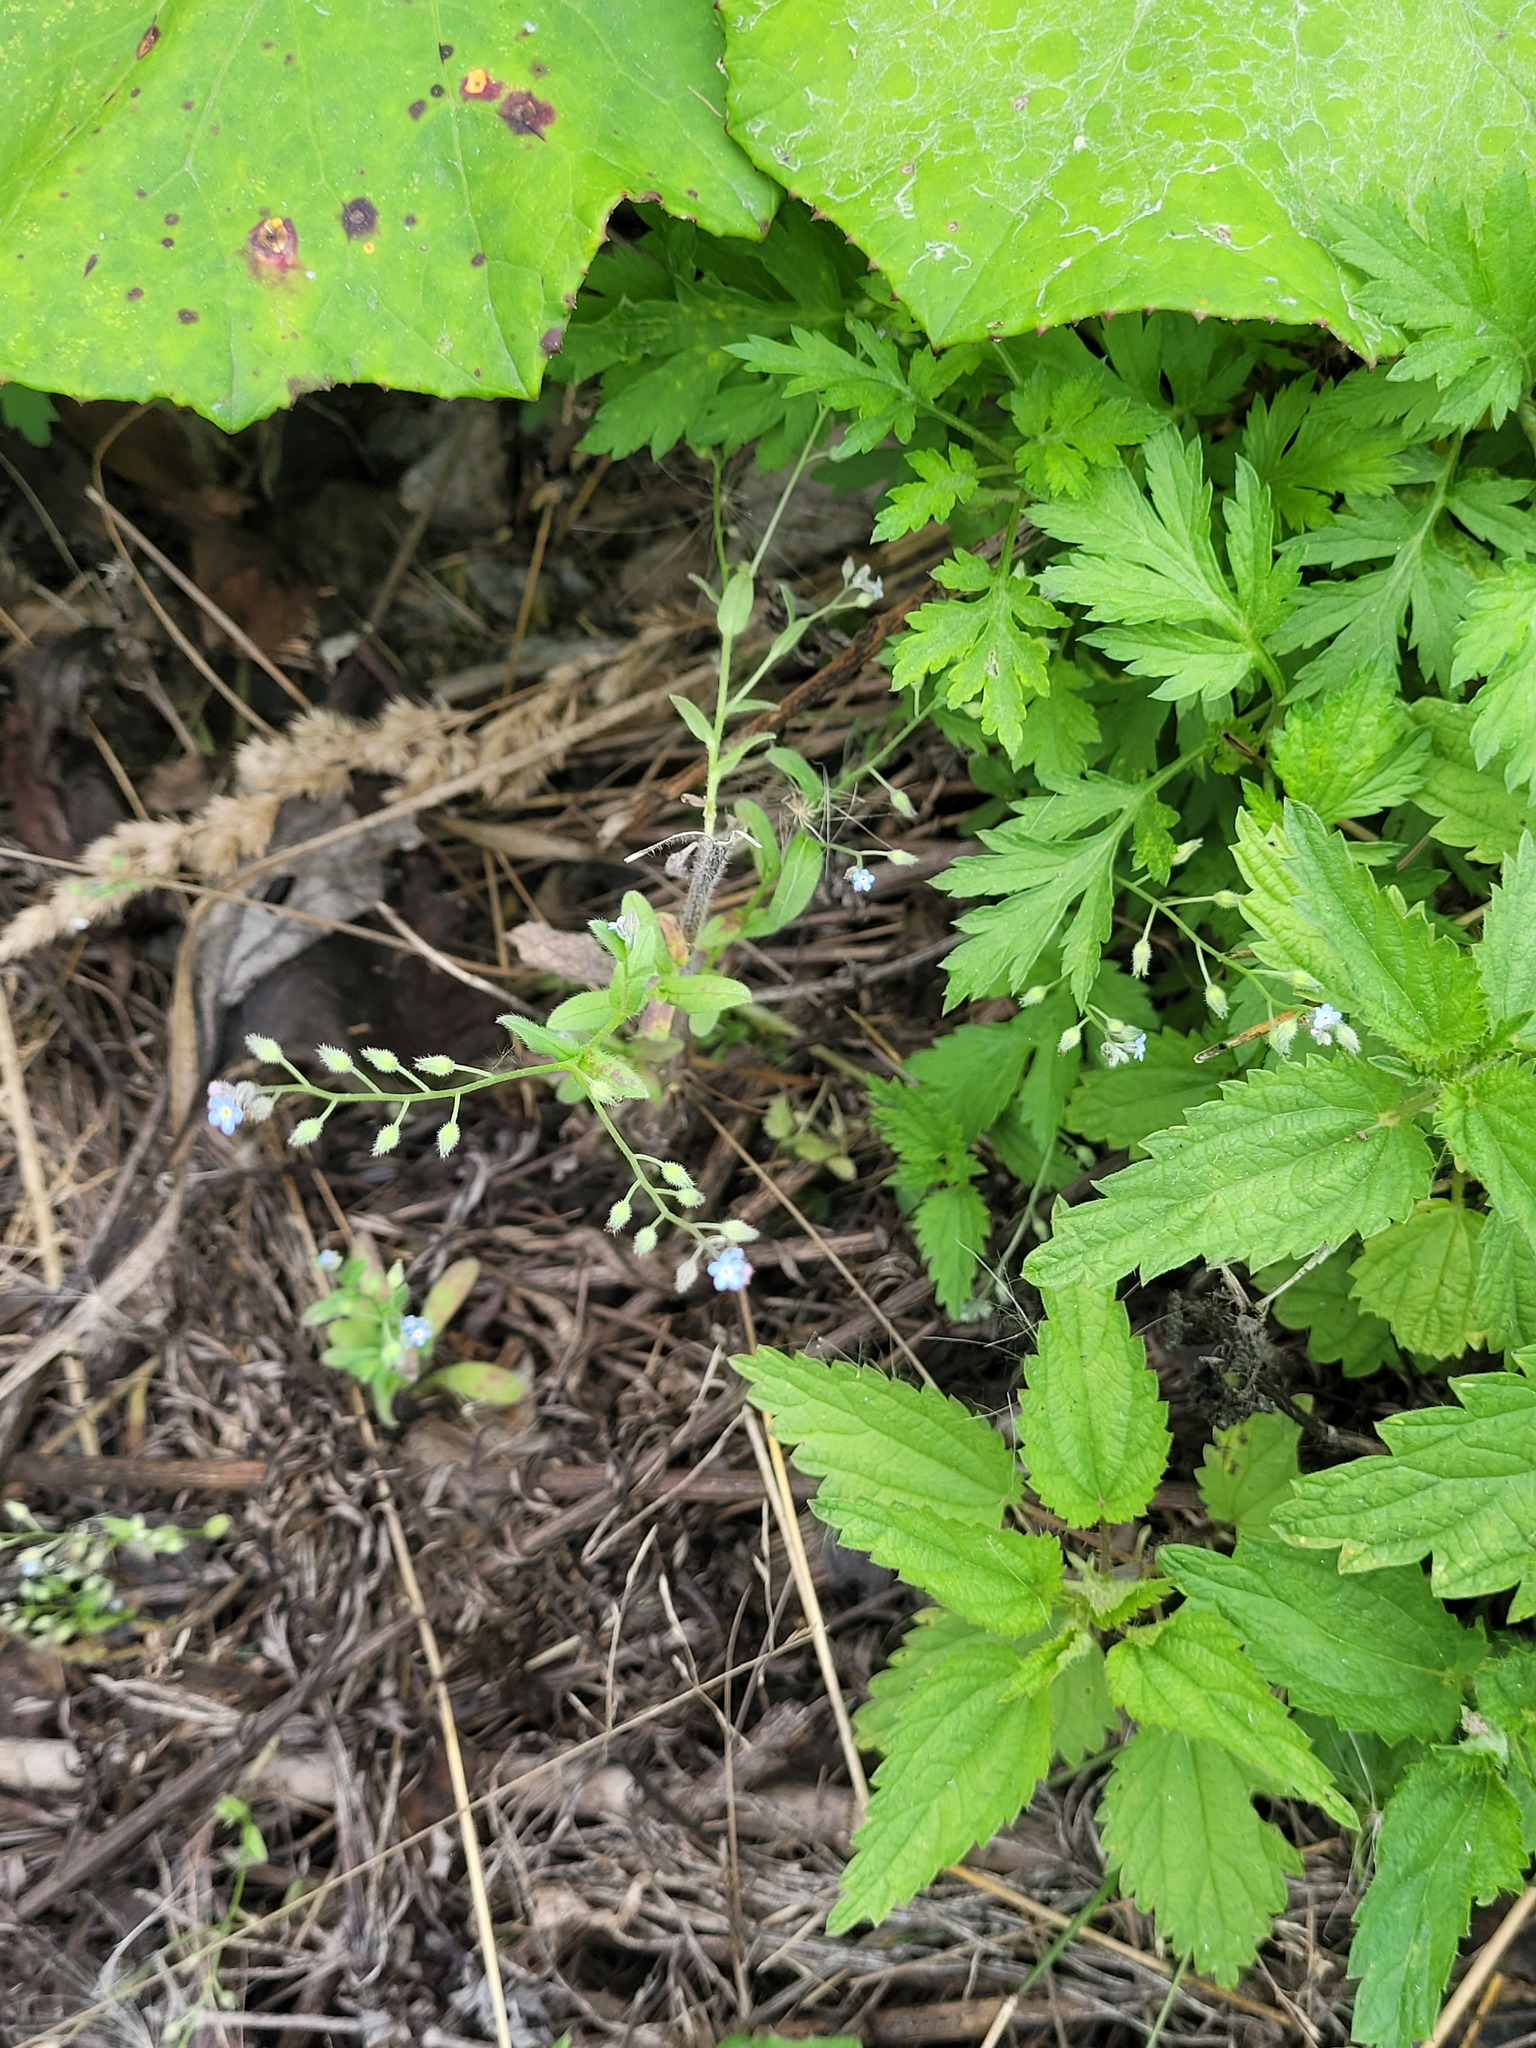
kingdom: Plantae
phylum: Tracheophyta
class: Magnoliopsida
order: Boraginales
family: Boraginaceae
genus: Myosotis
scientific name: Myosotis arvensis
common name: Field forget-me-not
